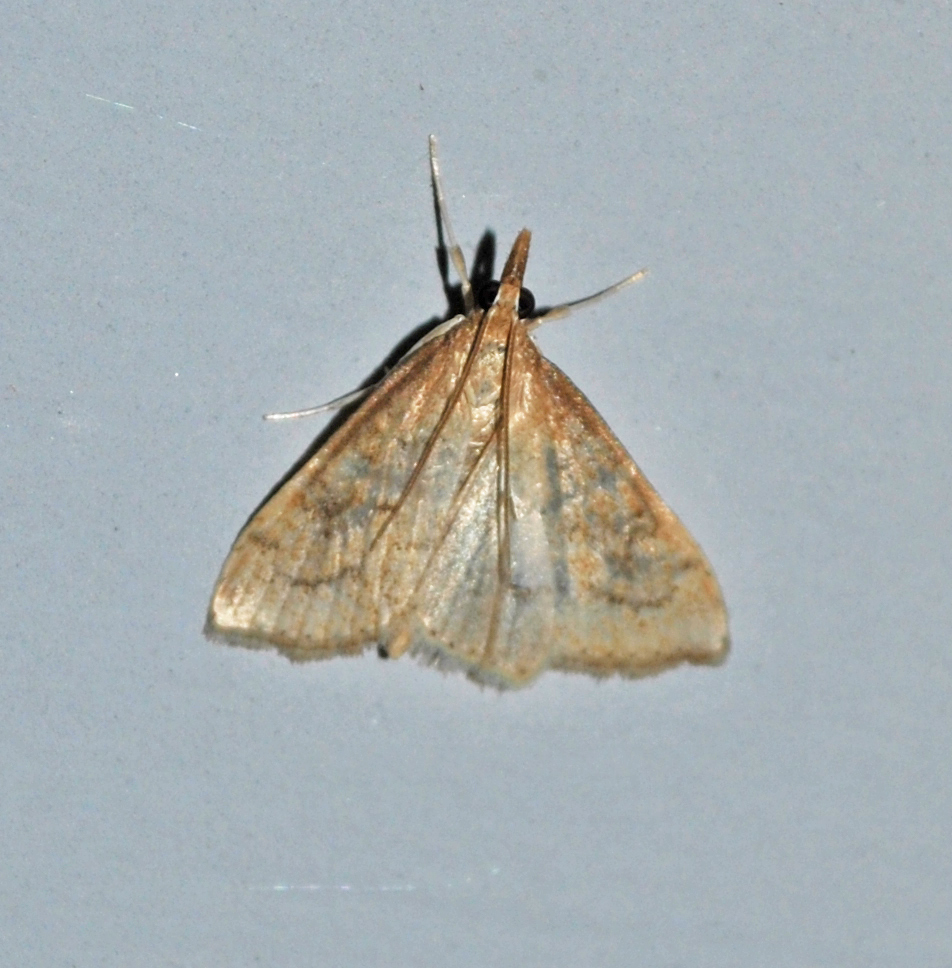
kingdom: Animalia
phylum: Arthropoda
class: Insecta
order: Lepidoptera
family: Crambidae
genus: Udea
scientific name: Udea rubigalis
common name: Celery leaftier moth
